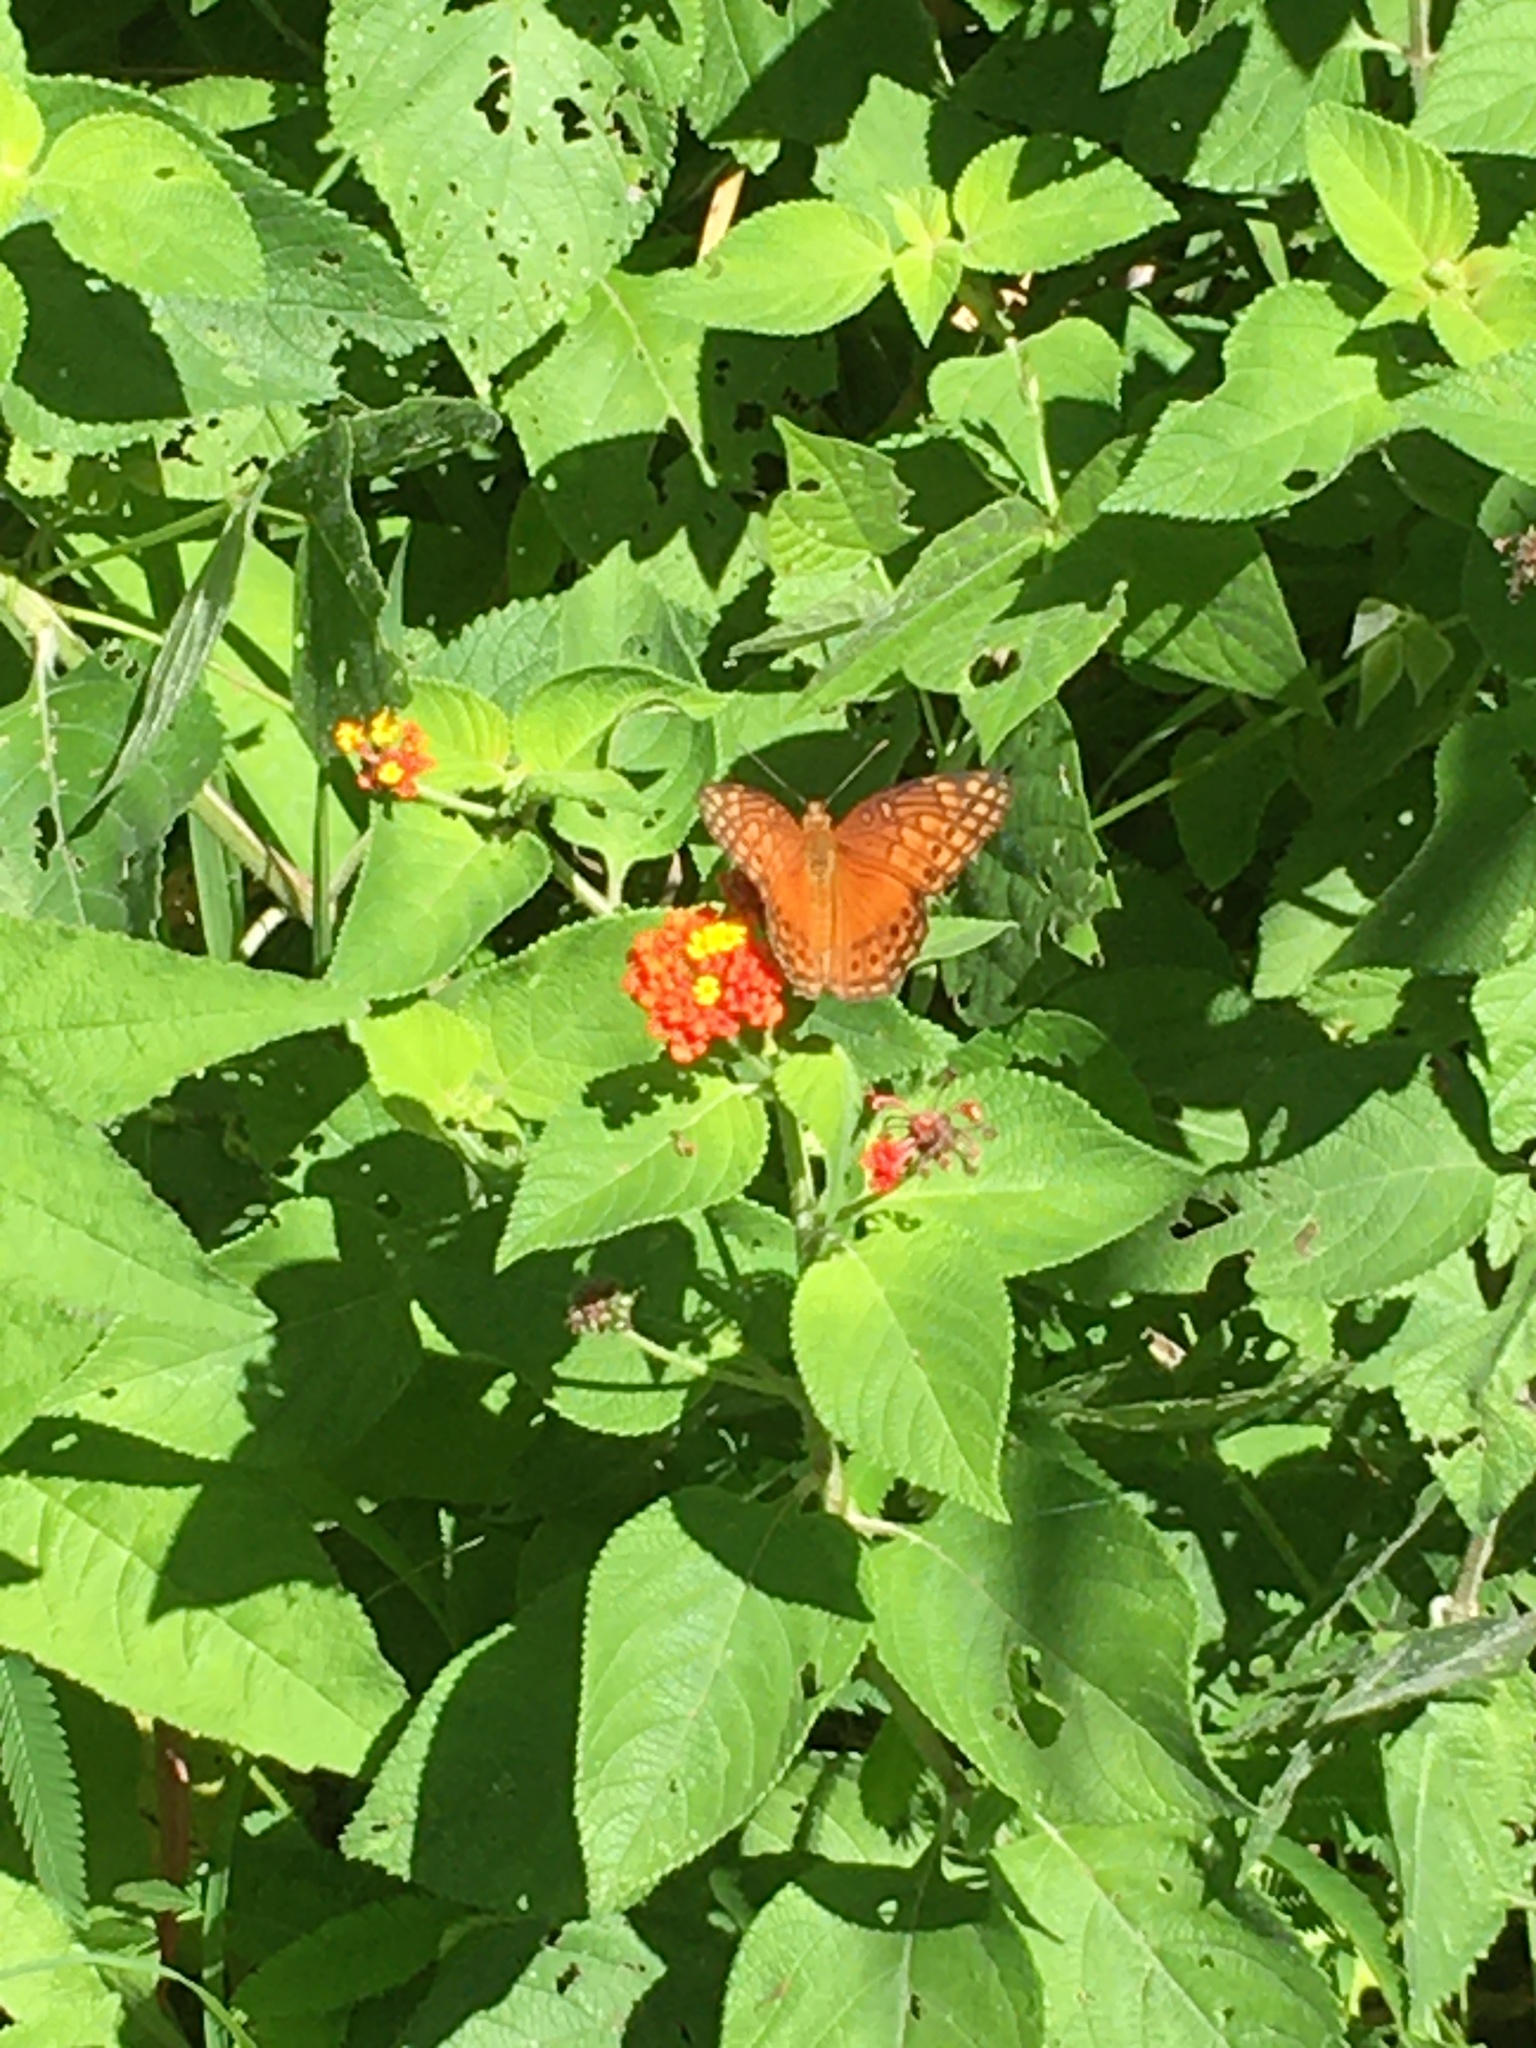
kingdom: Animalia
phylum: Arthropoda
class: Insecta
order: Lepidoptera
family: Nymphalidae
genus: Euptoieta
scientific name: Euptoieta hegesia
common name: Mexican fritillary
